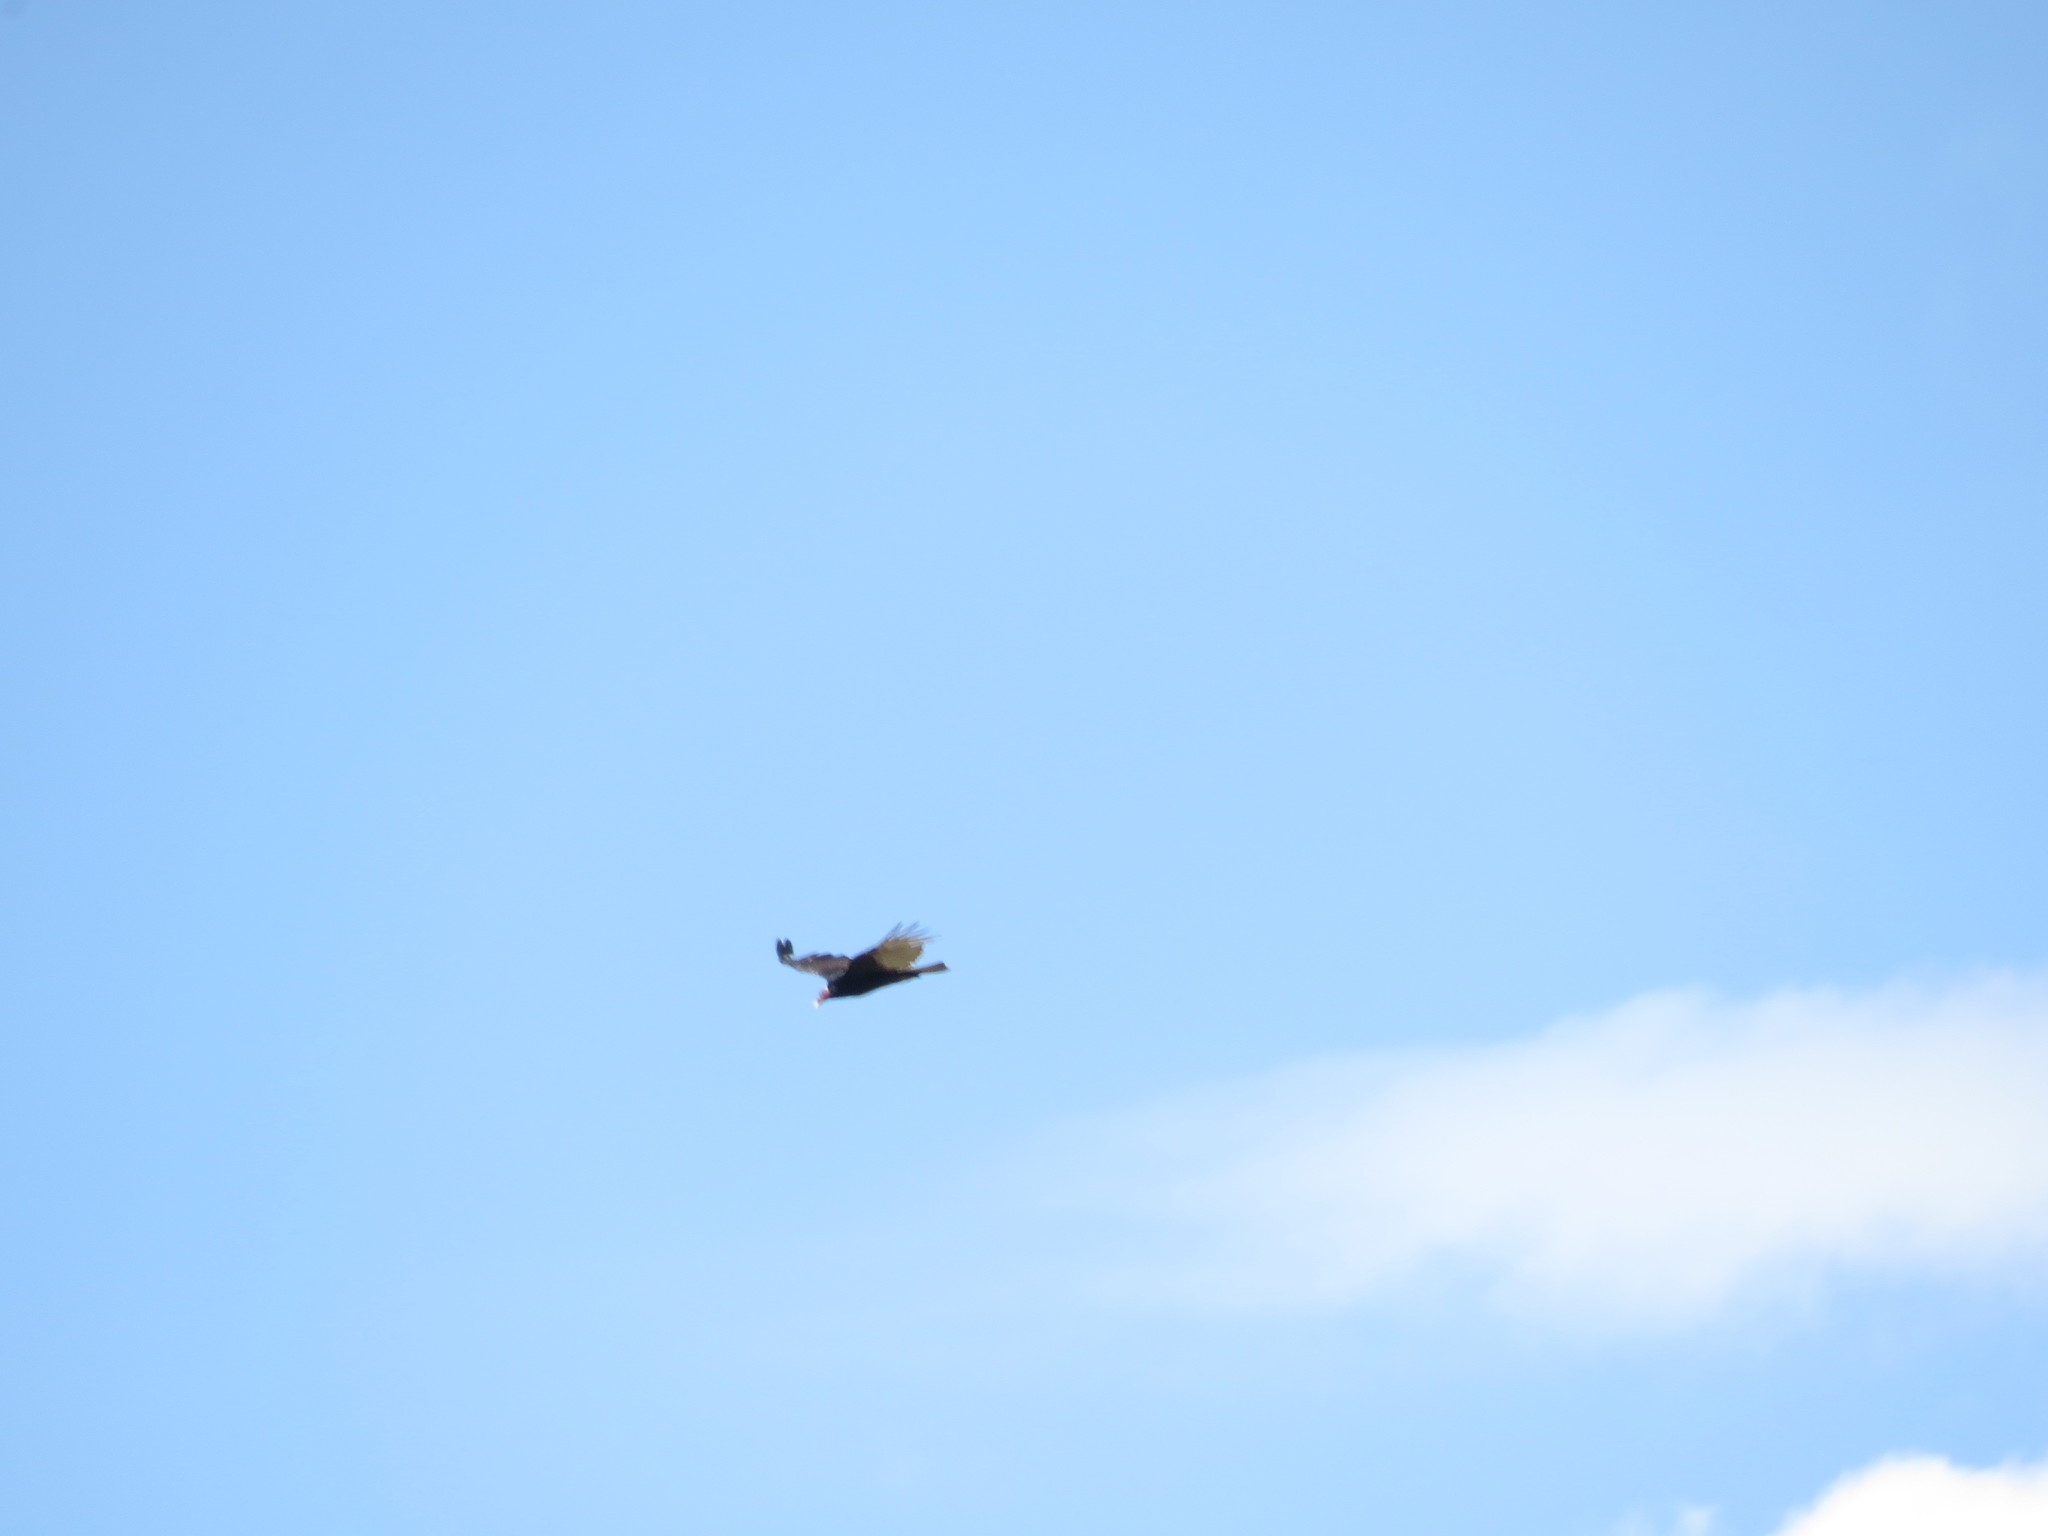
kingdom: Animalia
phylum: Chordata
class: Aves
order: Accipitriformes
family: Cathartidae
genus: Cathartes
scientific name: Cathartes aura
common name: Turkey vulture
